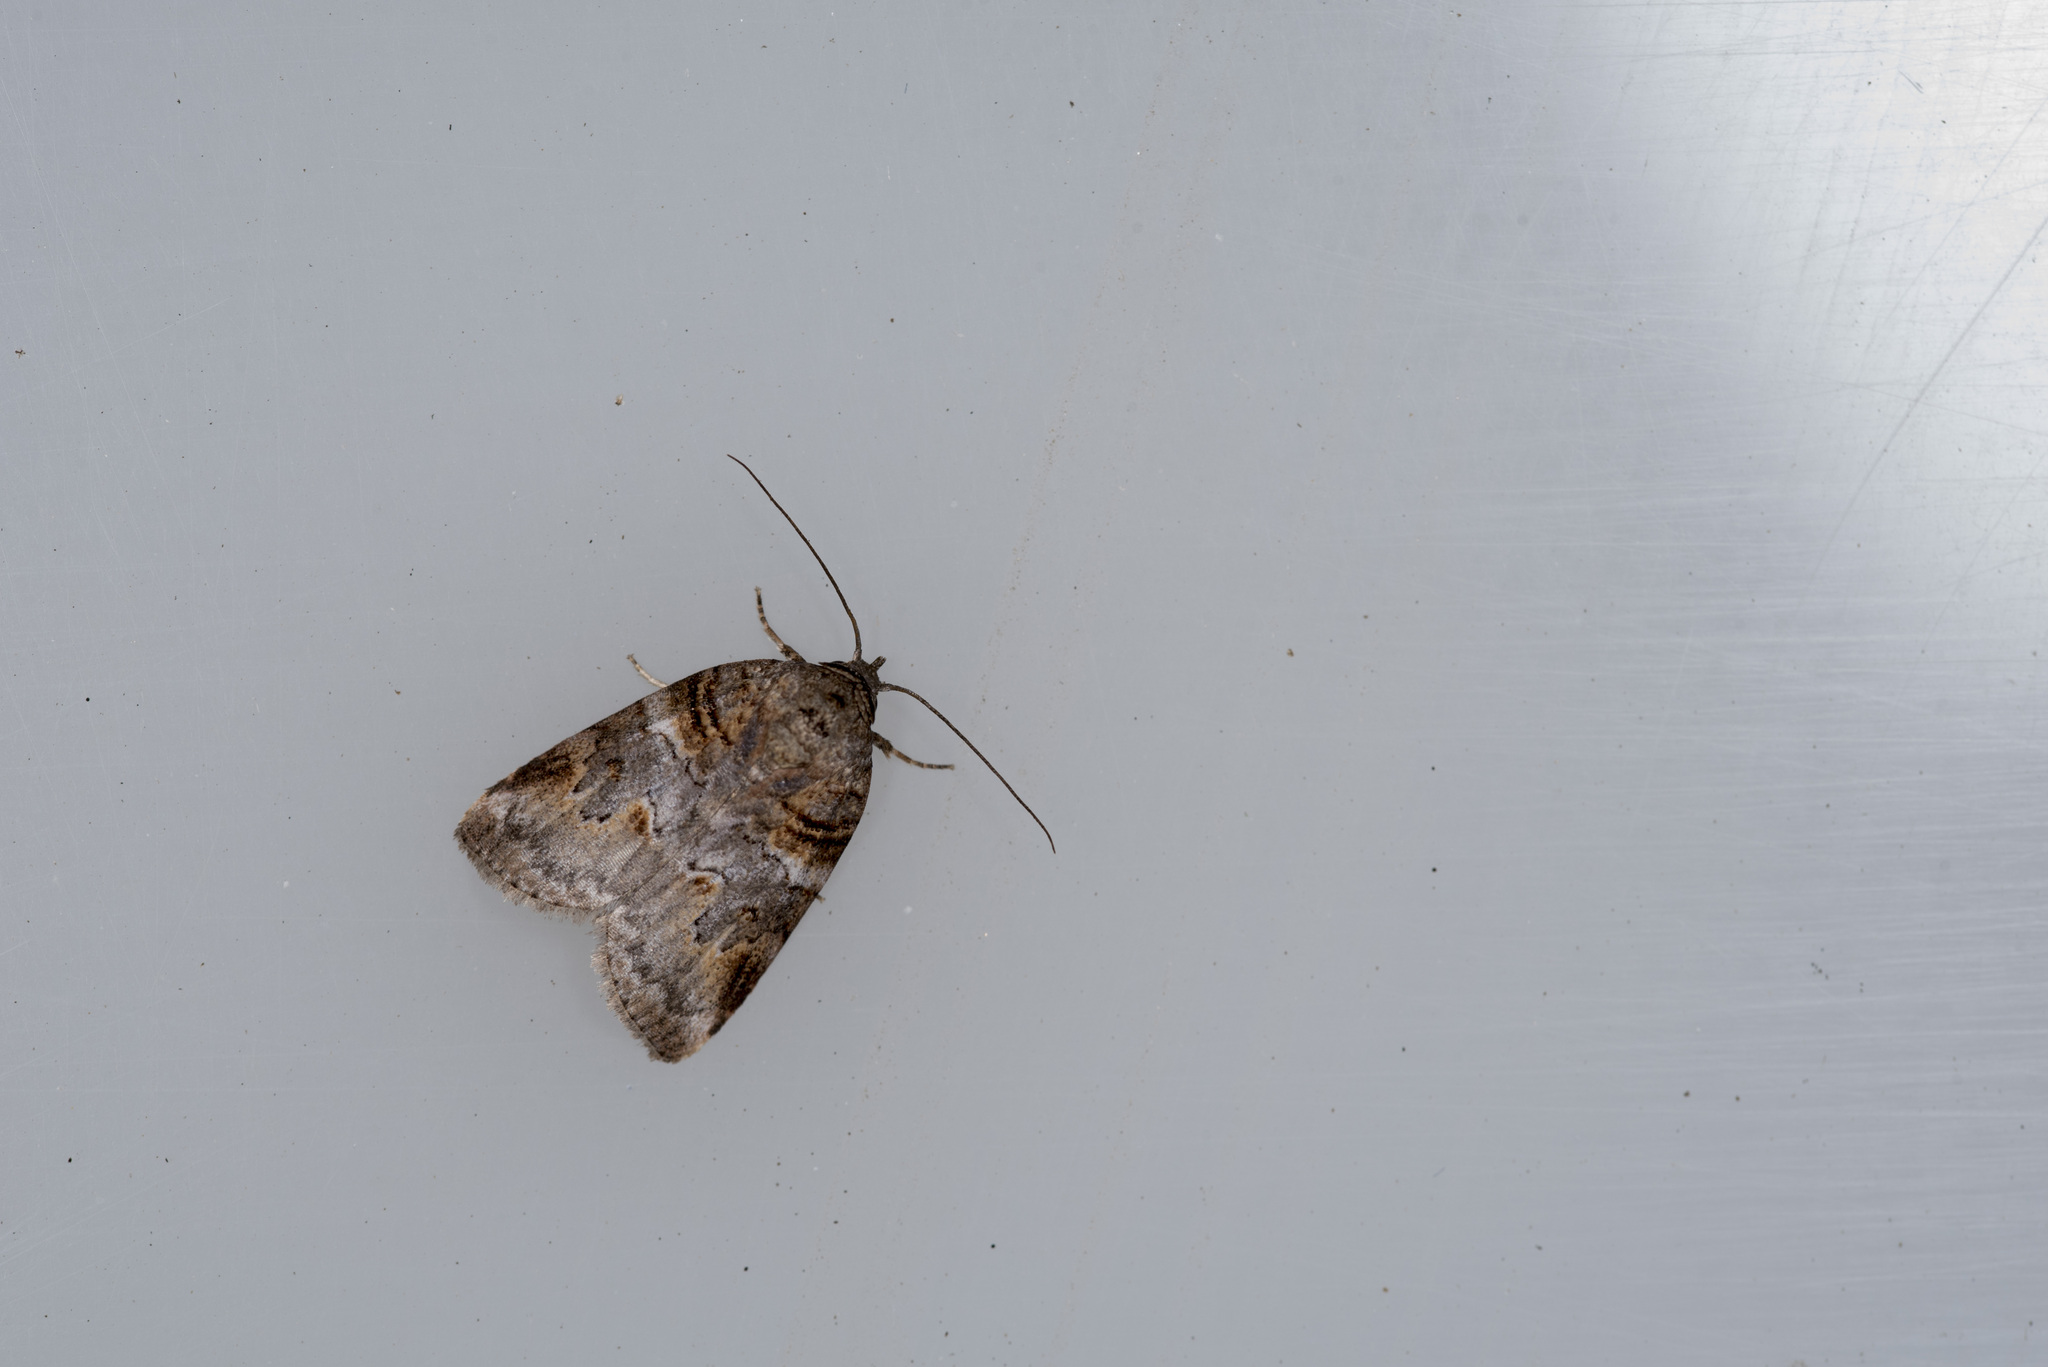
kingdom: Animalia
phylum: Arthropoda
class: Insecta
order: Lepidoptera
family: Nolidae
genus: Garella
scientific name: Garella ruficirra
